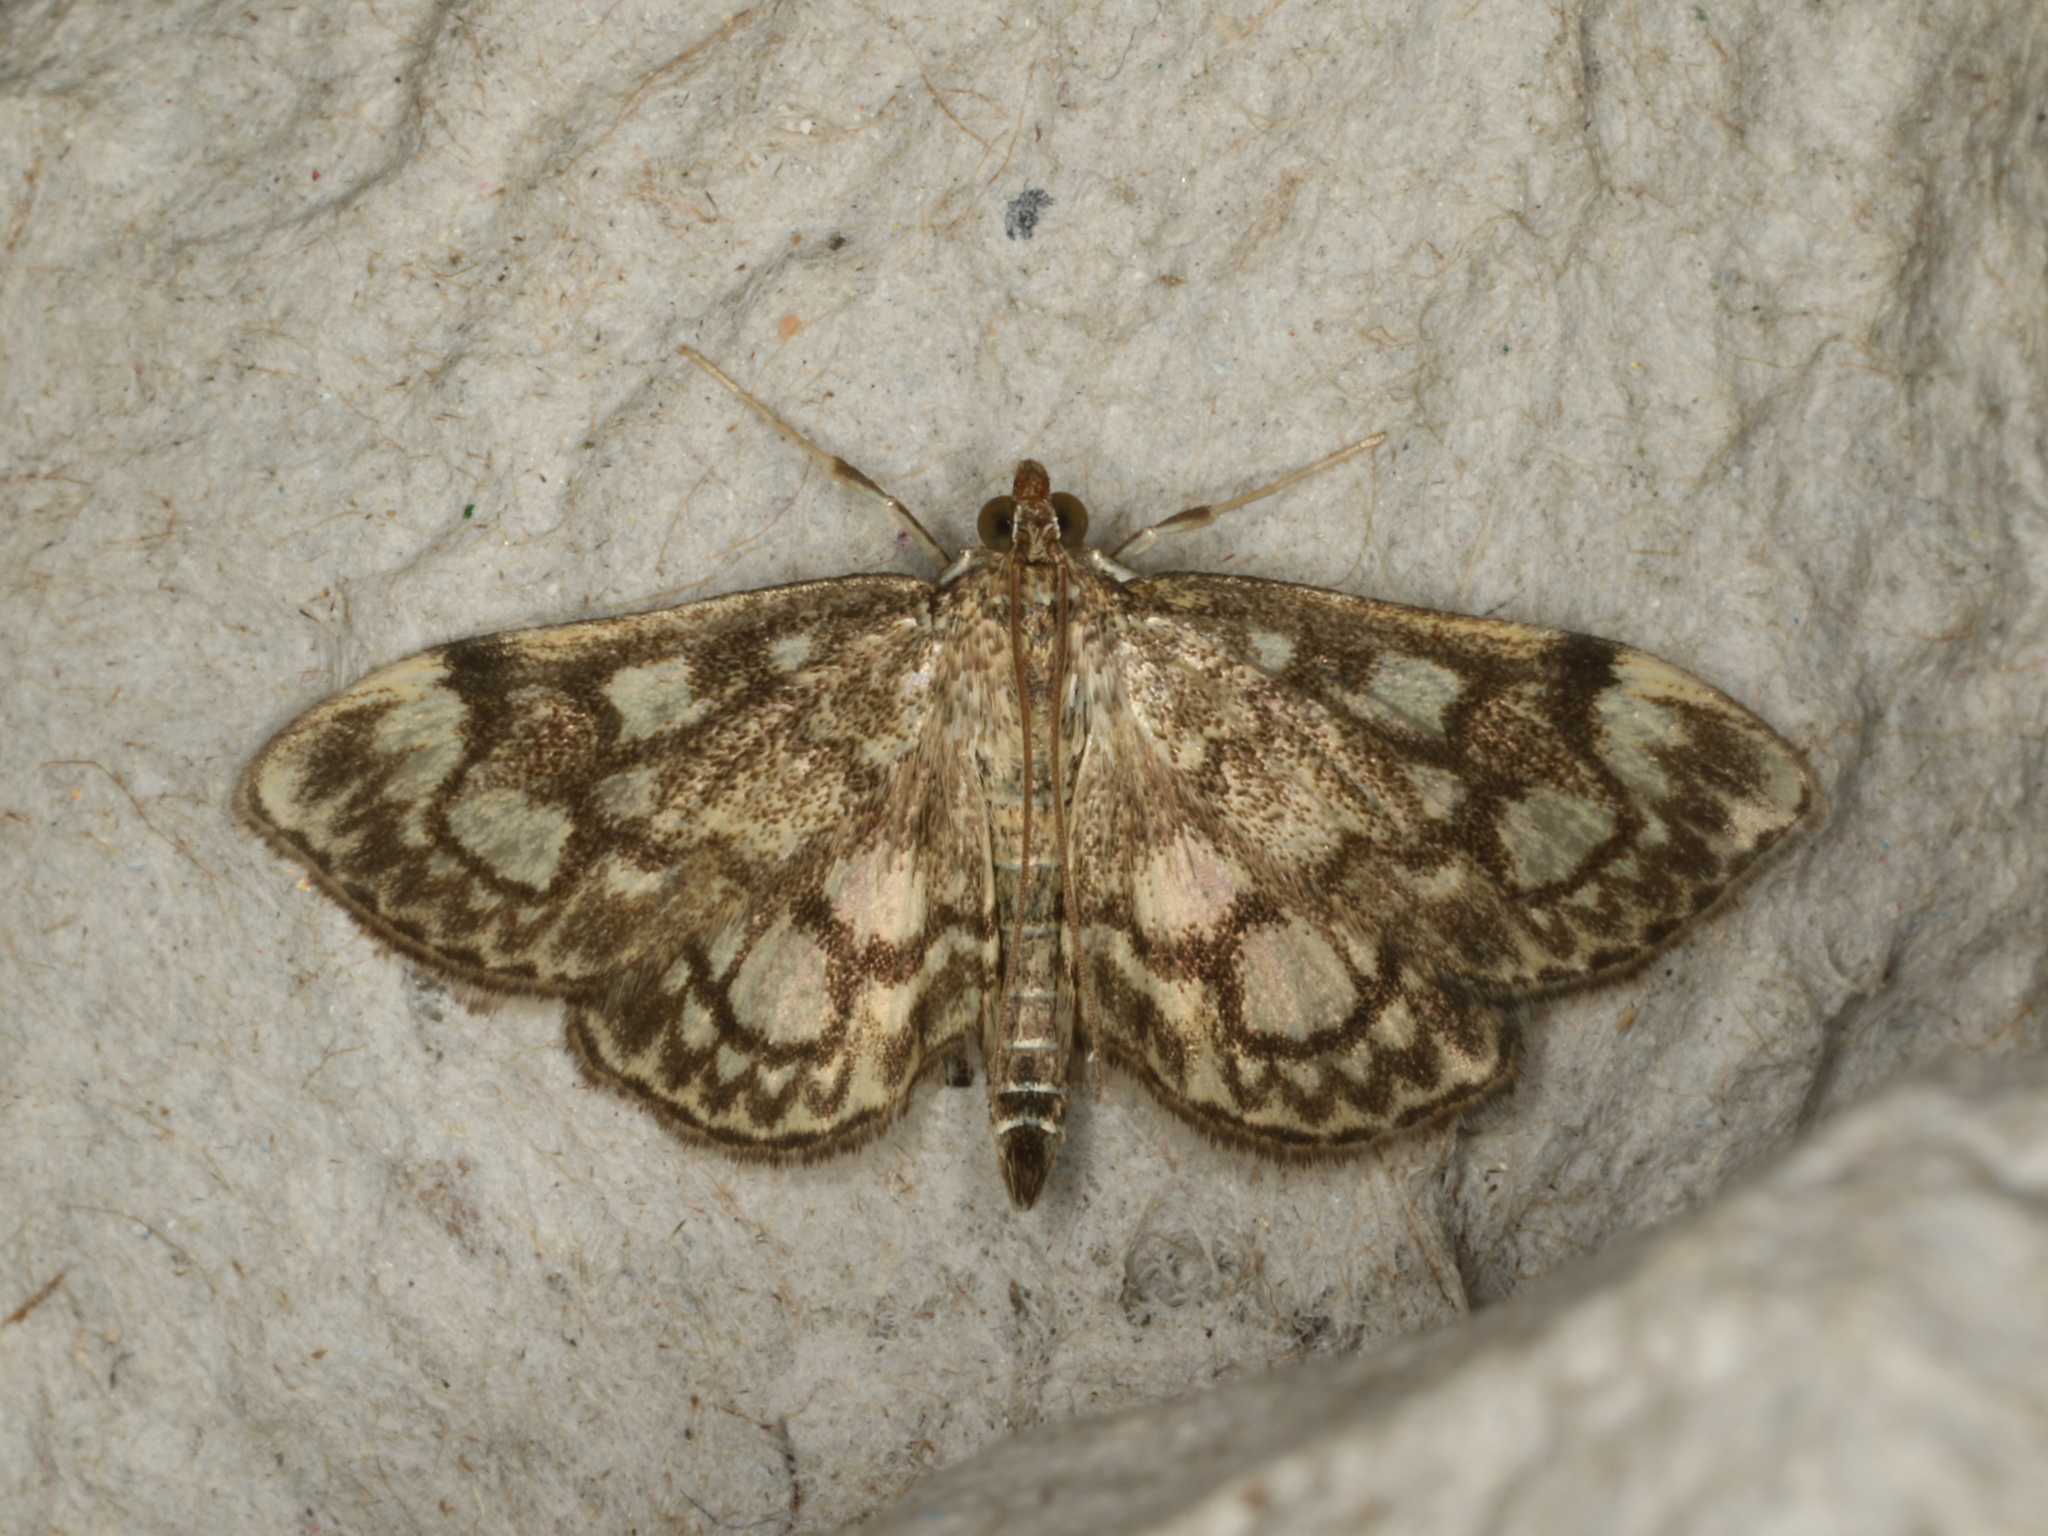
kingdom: Animalia
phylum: Arthropoda
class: Insecta
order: Lepidoptera
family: Crambidae
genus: Anania
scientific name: Anania coronata
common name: Elder pearl
